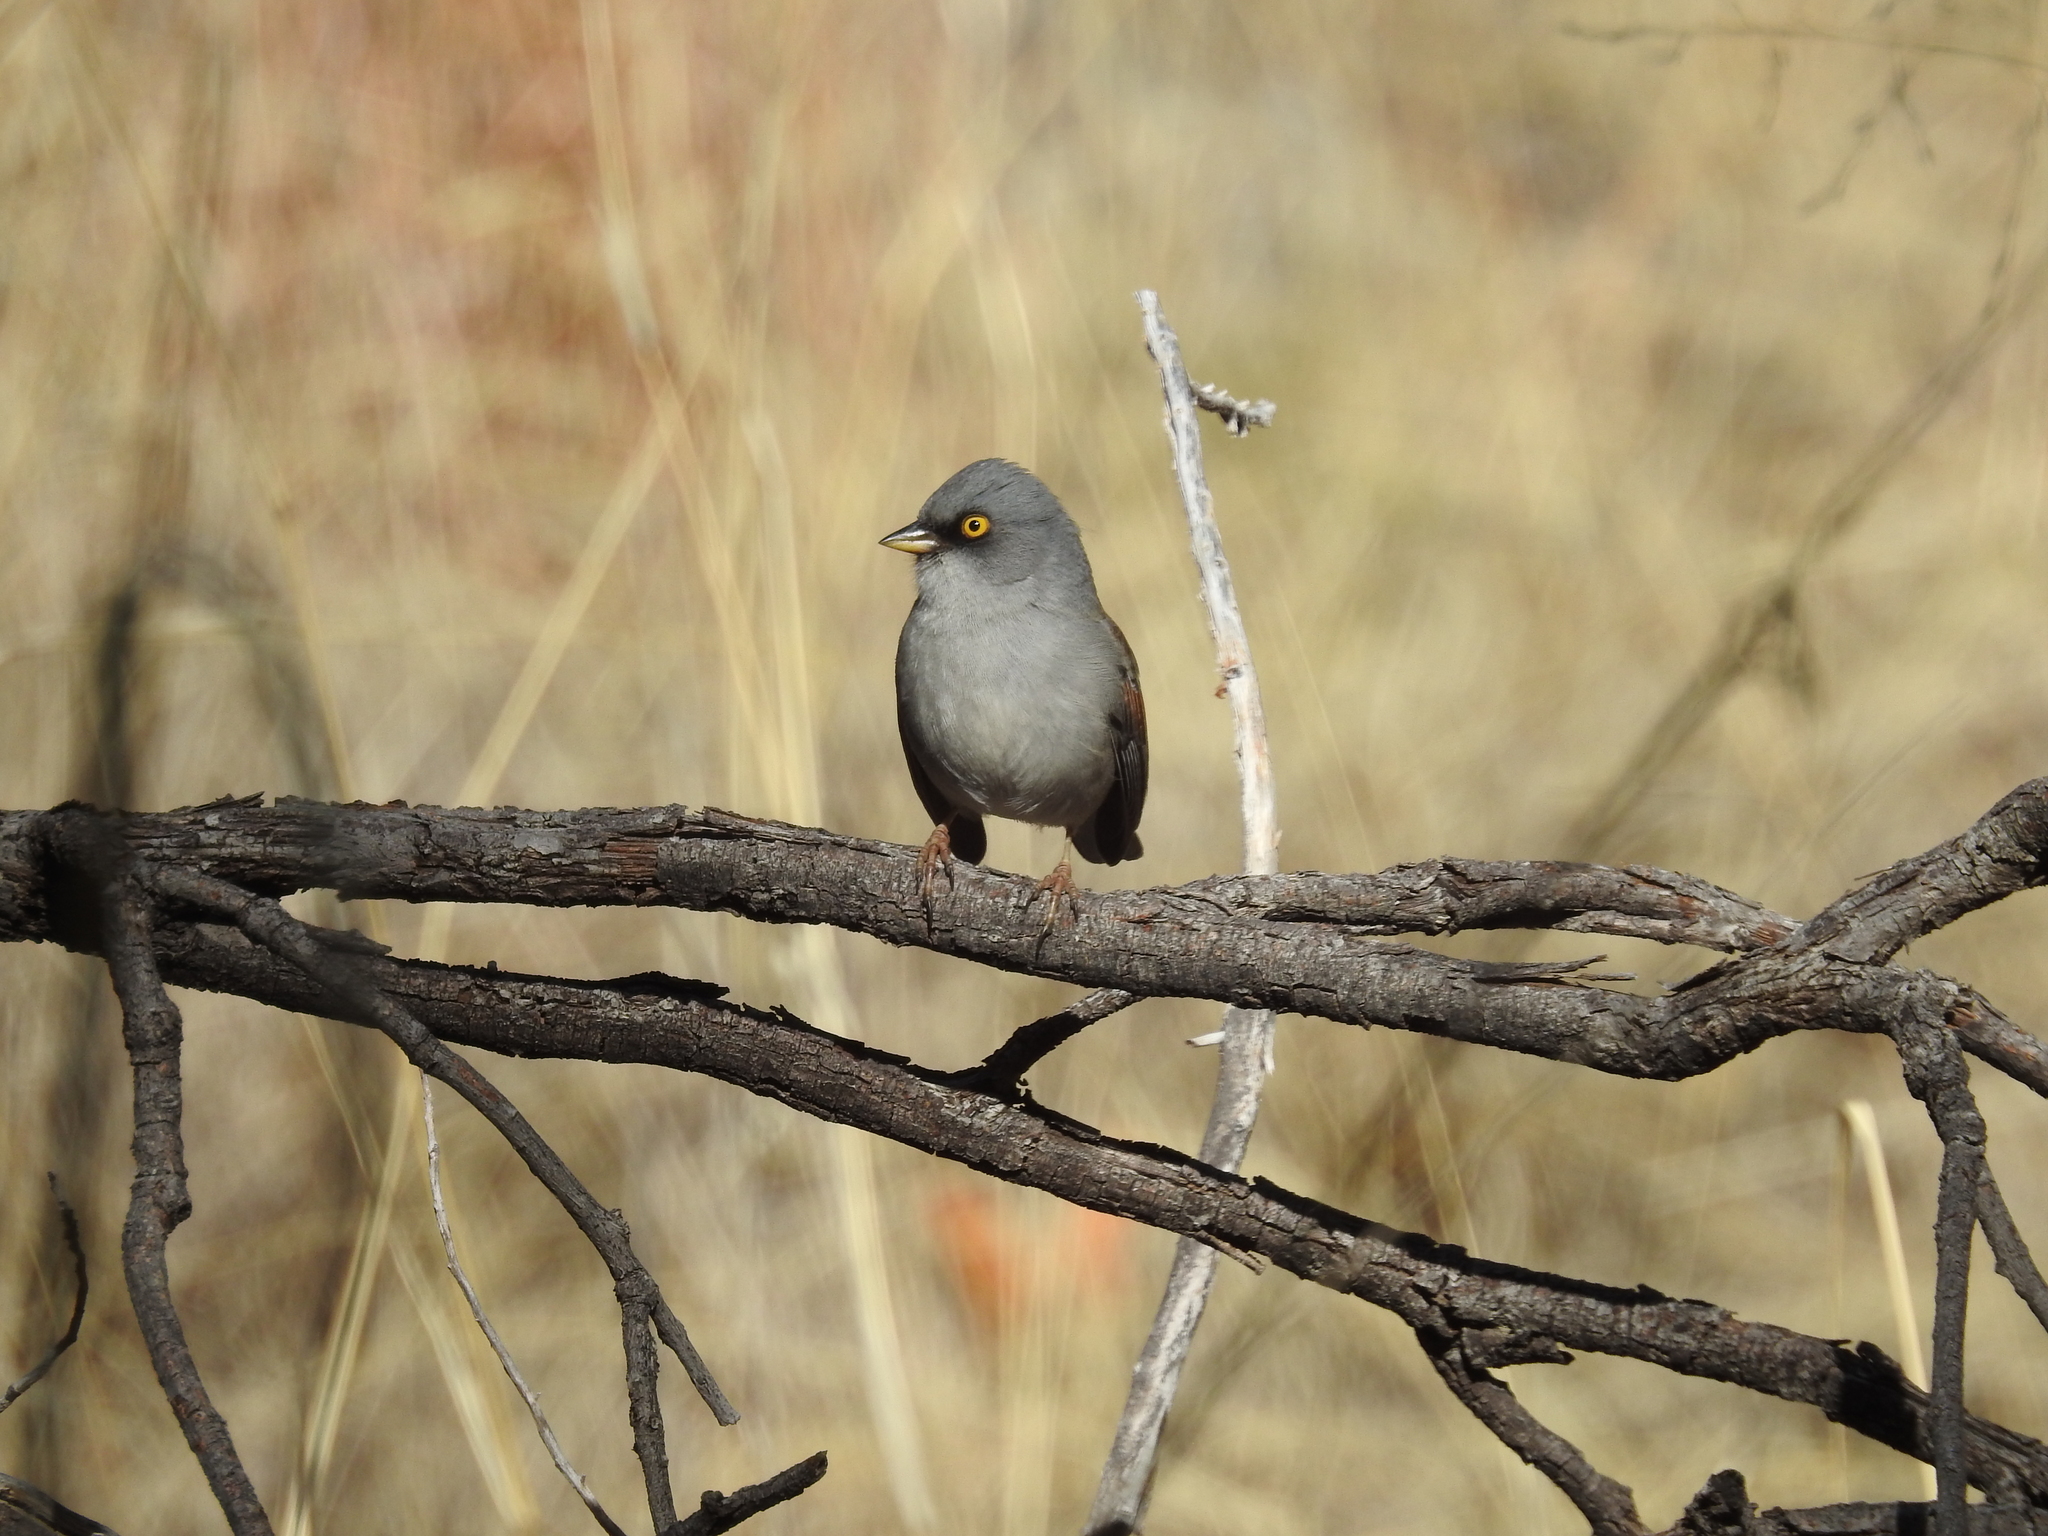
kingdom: Animalia
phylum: Chordata
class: Aves
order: Passeriformes
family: Passerellidae
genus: Junco
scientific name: Junco phaeonotus
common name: Yellow-eyed junco
